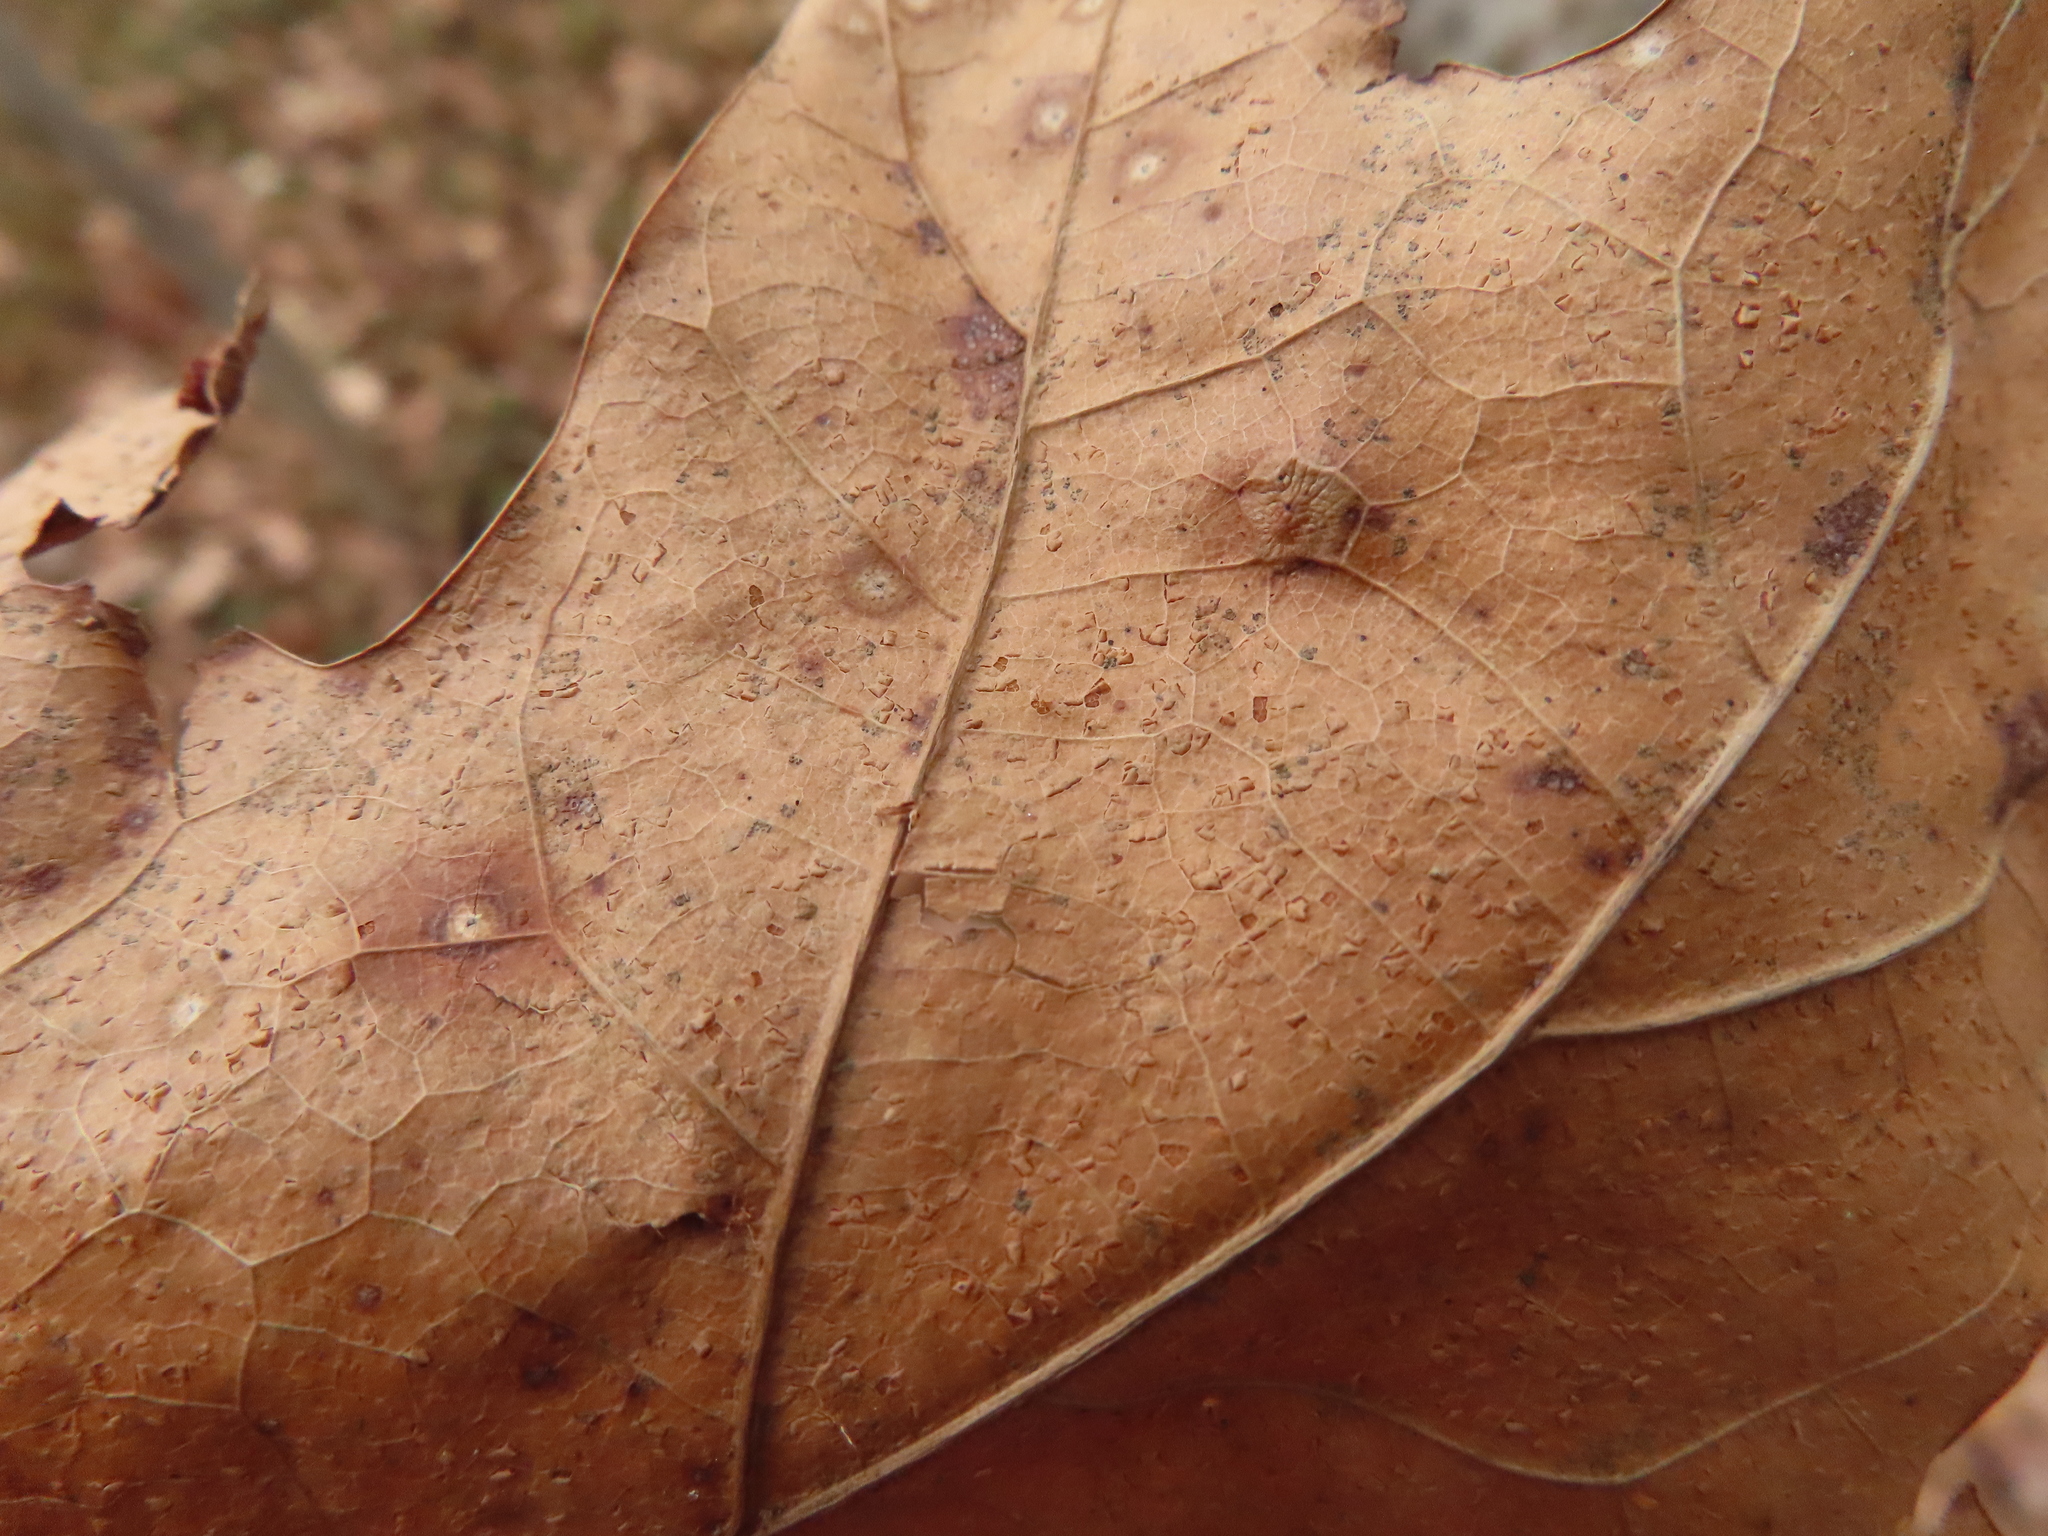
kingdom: Animalia
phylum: Arthropoda
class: Insecta
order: Diptera
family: Cecidomyiidae
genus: Polystepha
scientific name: Polystepha pilulae
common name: Oak leaf gall midge
